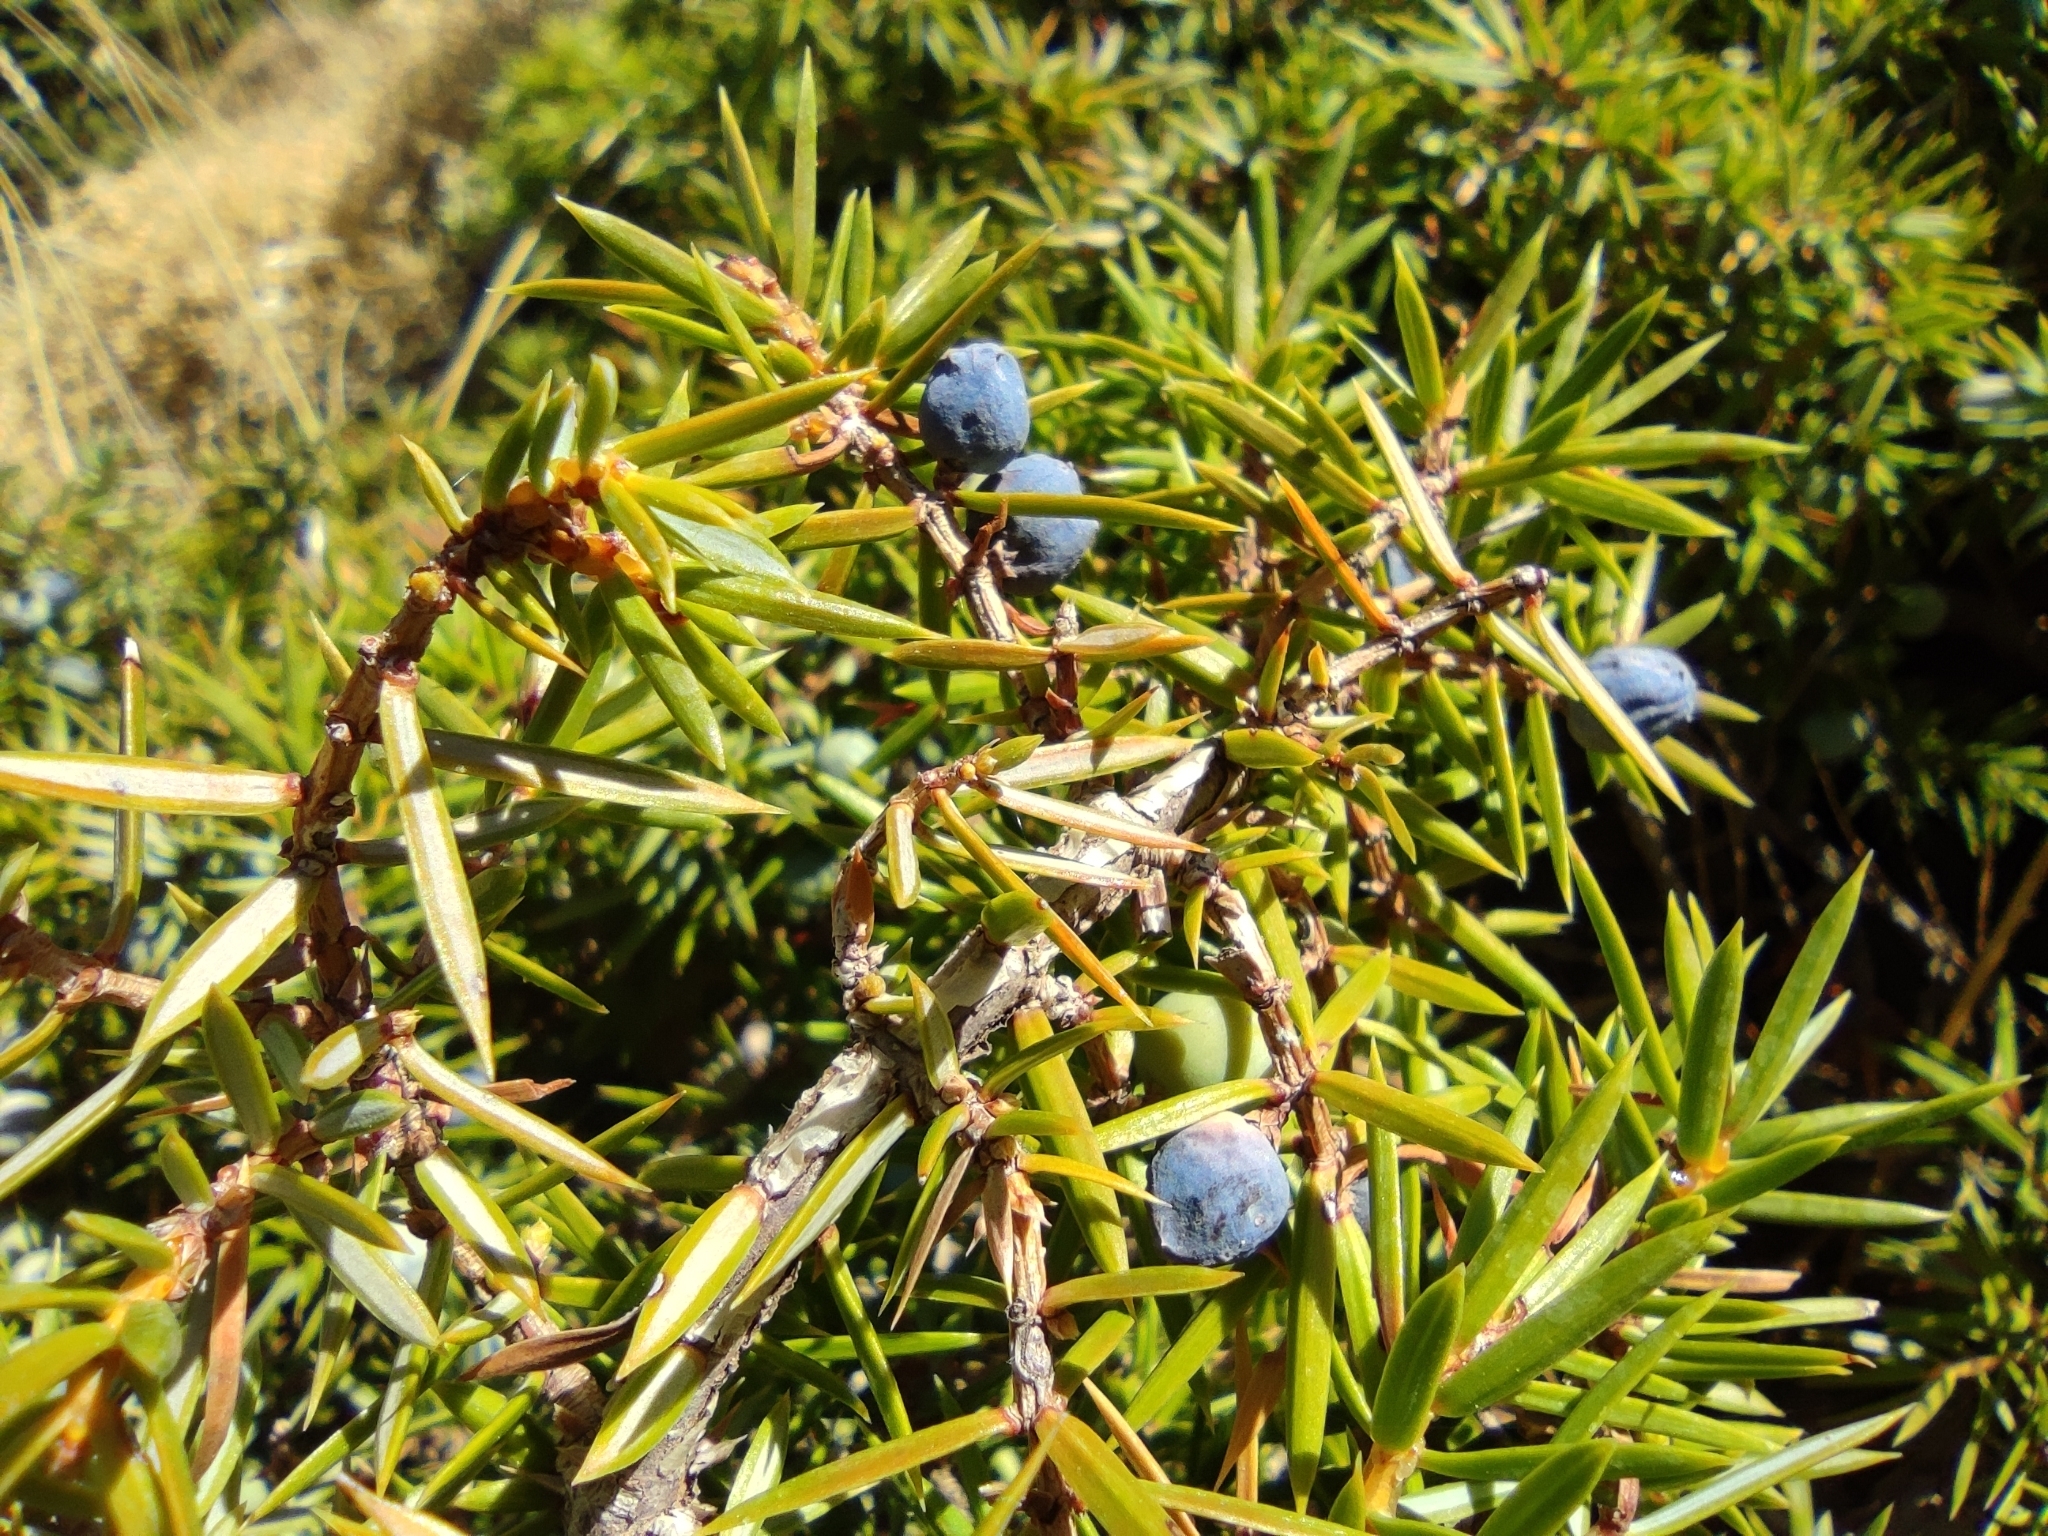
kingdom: Plantae
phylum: Tracheophyta
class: Pinopsida
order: Pinales
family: Cupressaceae
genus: Juniperus
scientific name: Juniperus communis
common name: Common juniper
